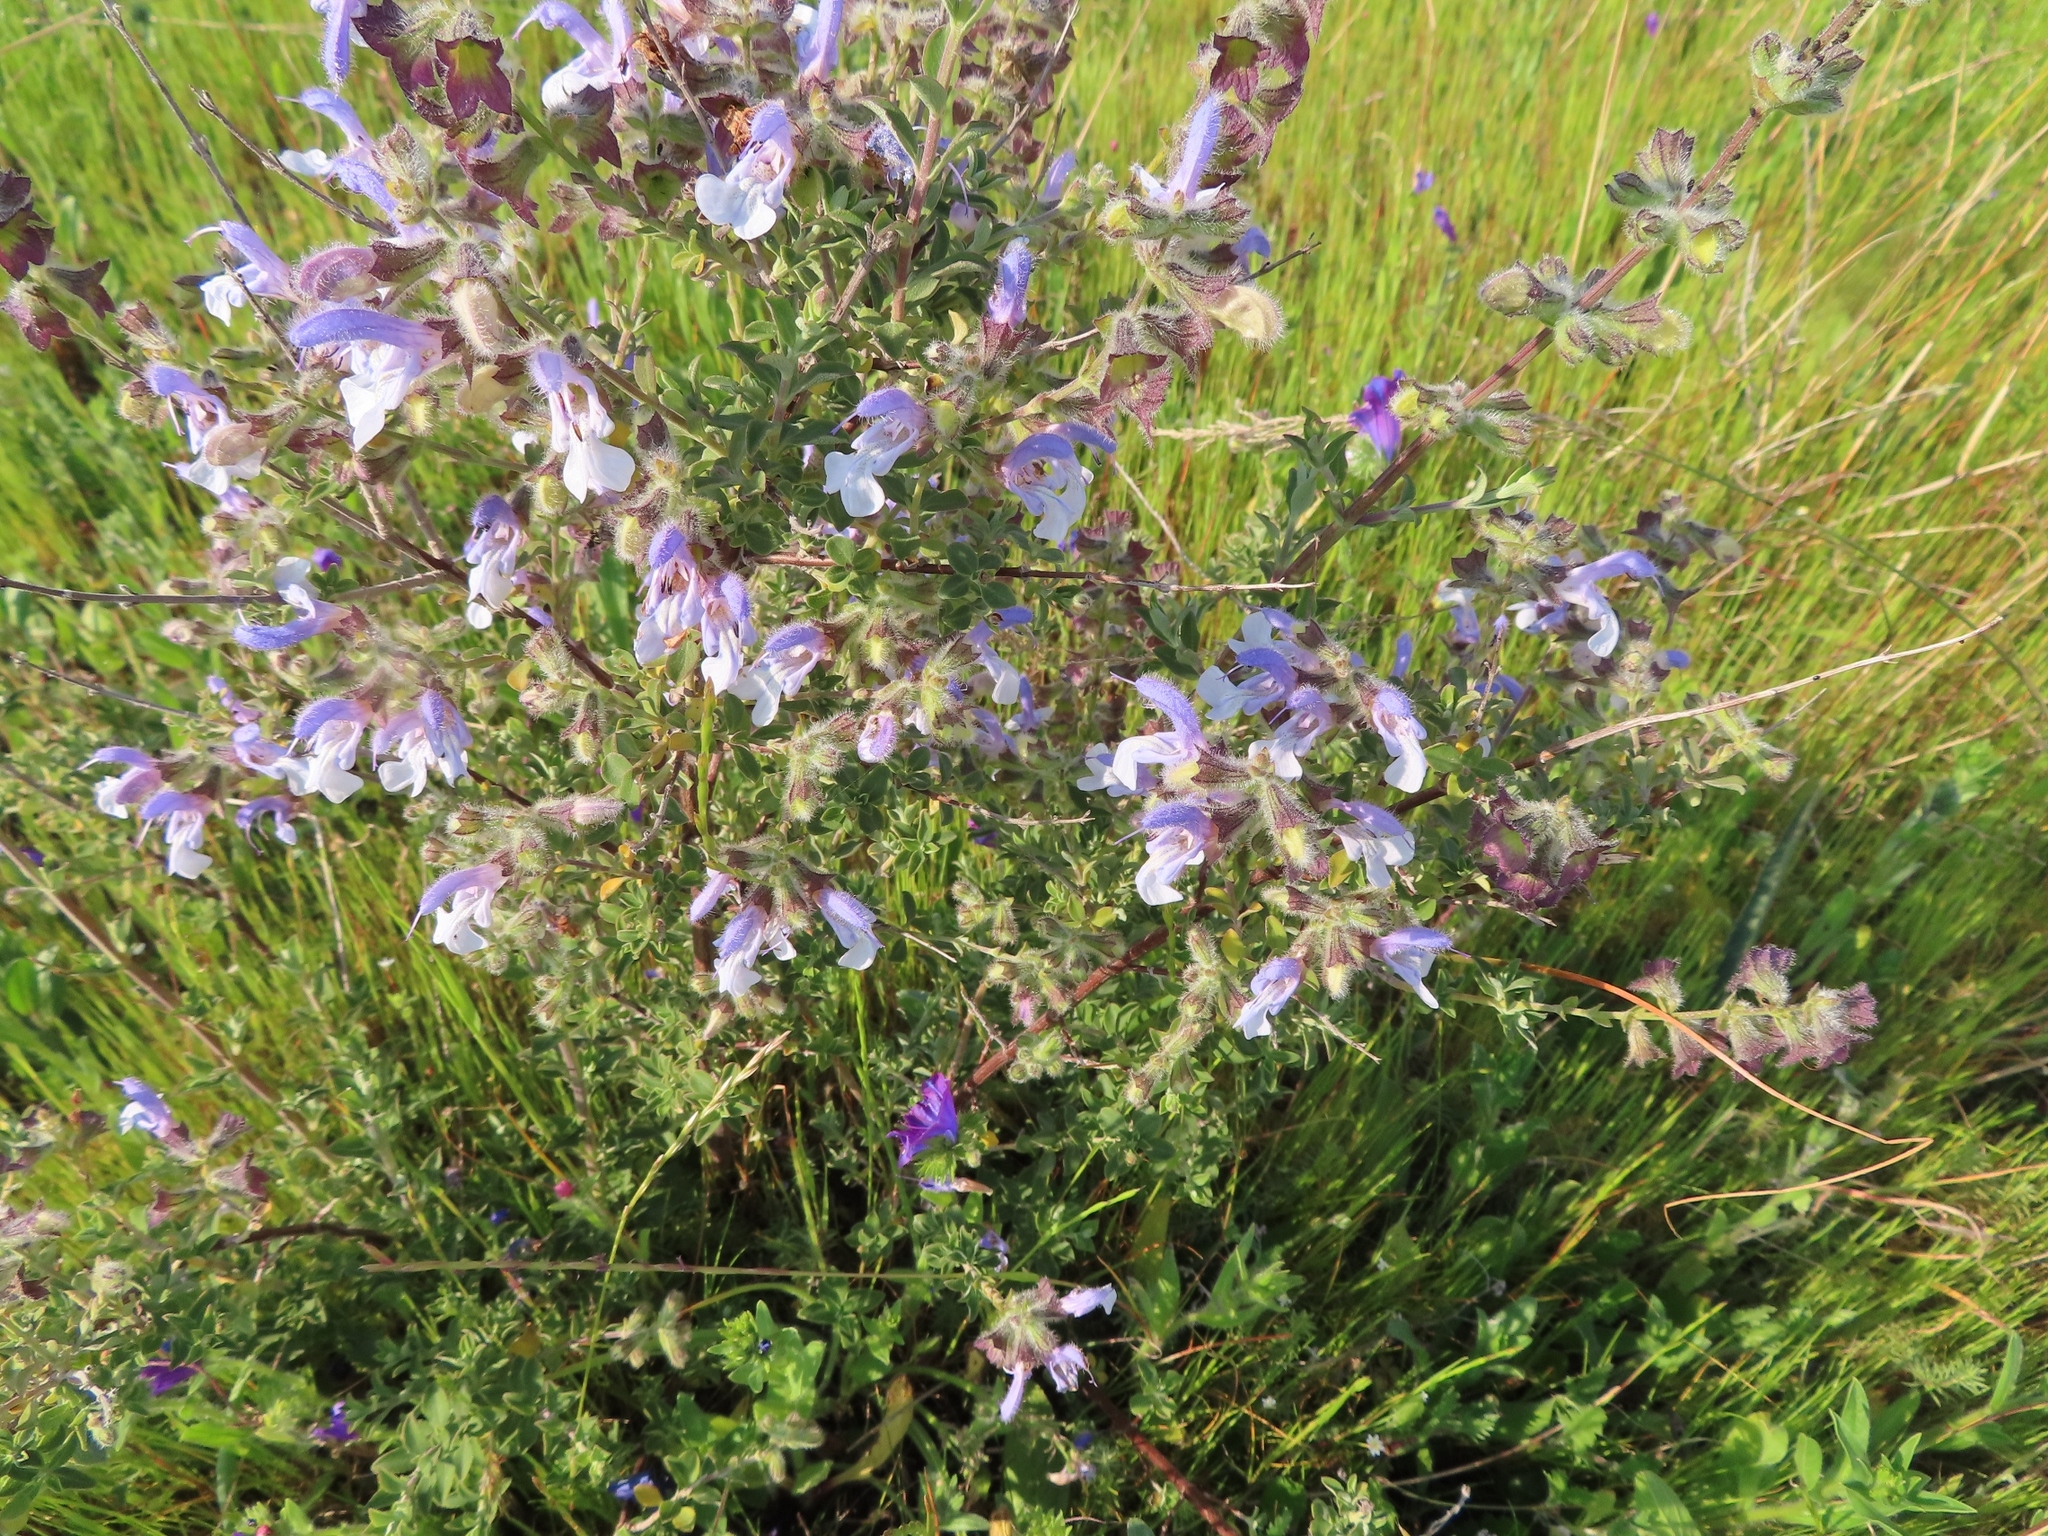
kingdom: Plantae
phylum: Tracheophyta
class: Magnoliopsida
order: Lamiales
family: Lamiaceae
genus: Salvia
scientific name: Salvia africana
